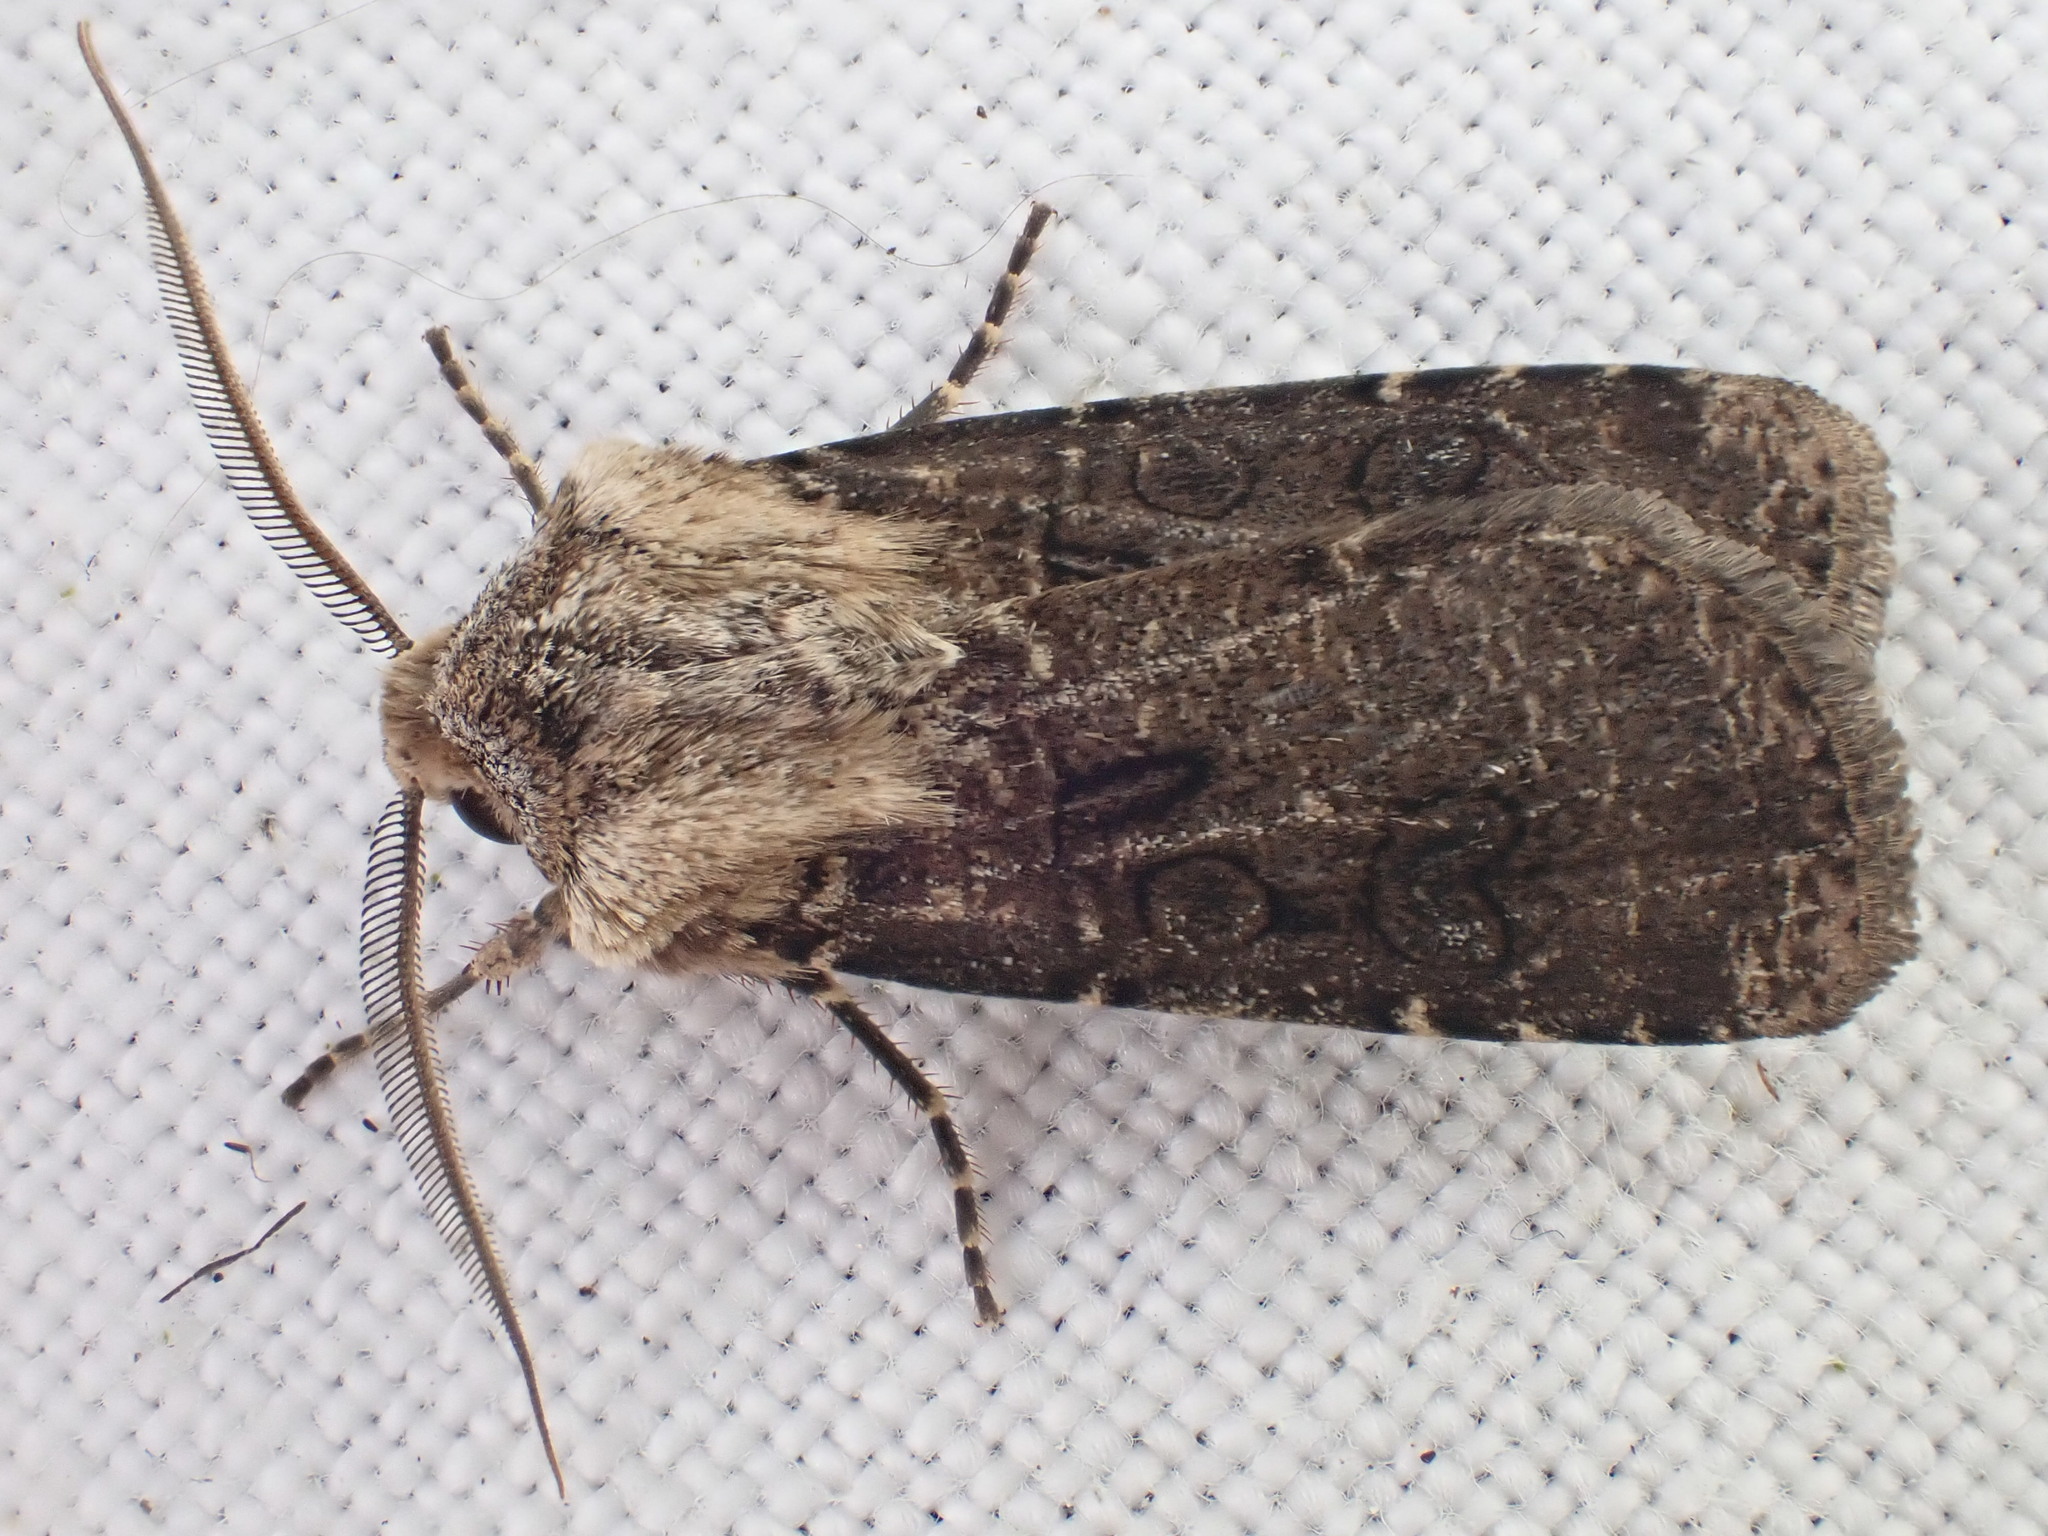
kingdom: Animalia
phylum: Arthropoda
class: Insecta
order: Lepidoptera
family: Noctuidae
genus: Agrotis
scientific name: Agrotis clavis
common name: Heart and club
